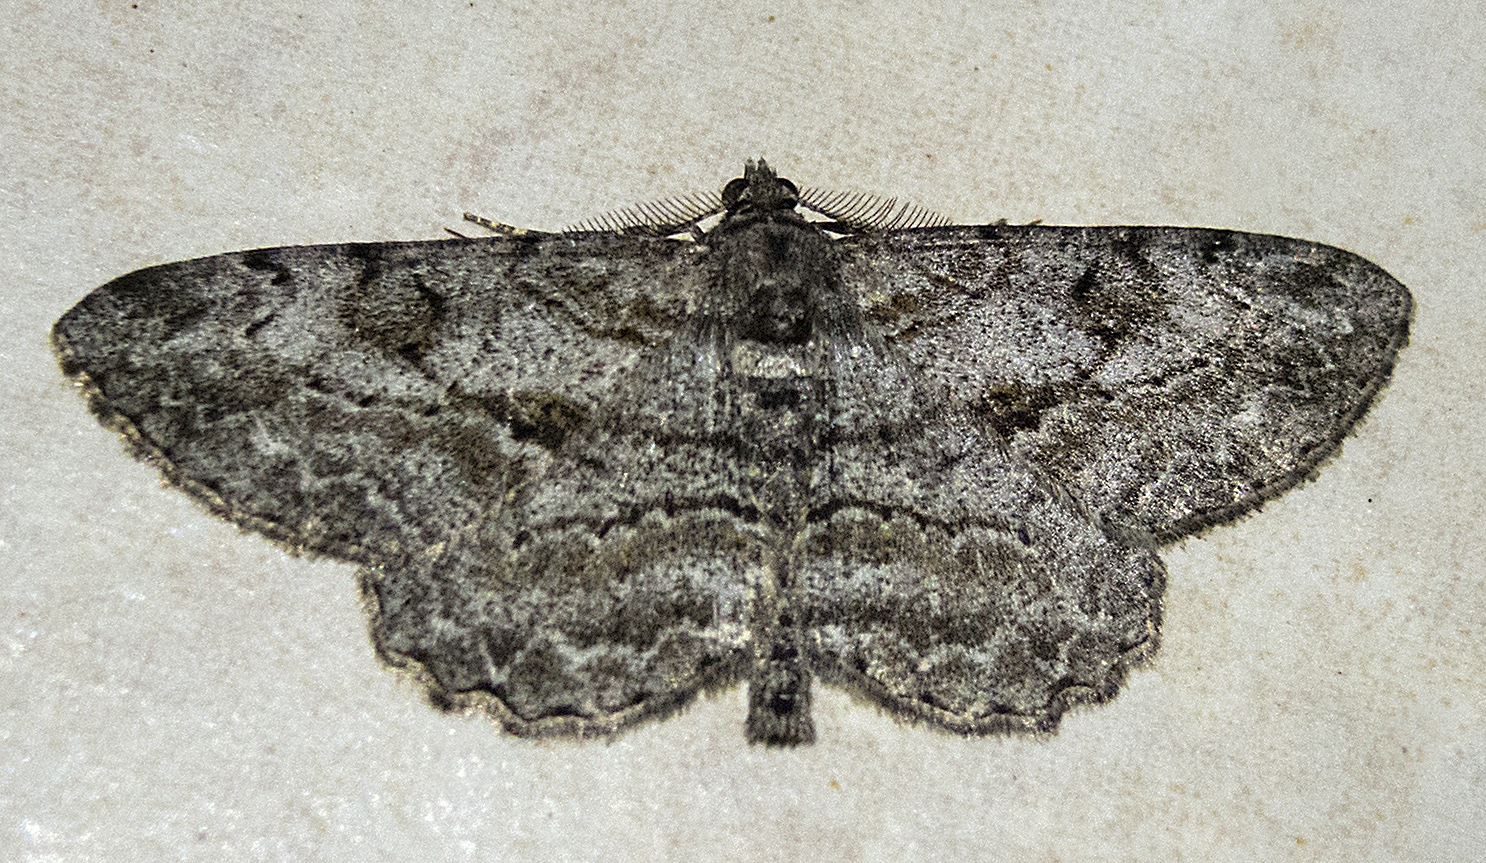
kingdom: Animalia
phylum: Arthropoda
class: Insecta
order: Lepidoptera
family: Geometridae
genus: Peribatodes
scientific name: Peribatodes rhomboidaria
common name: Willow beauty
